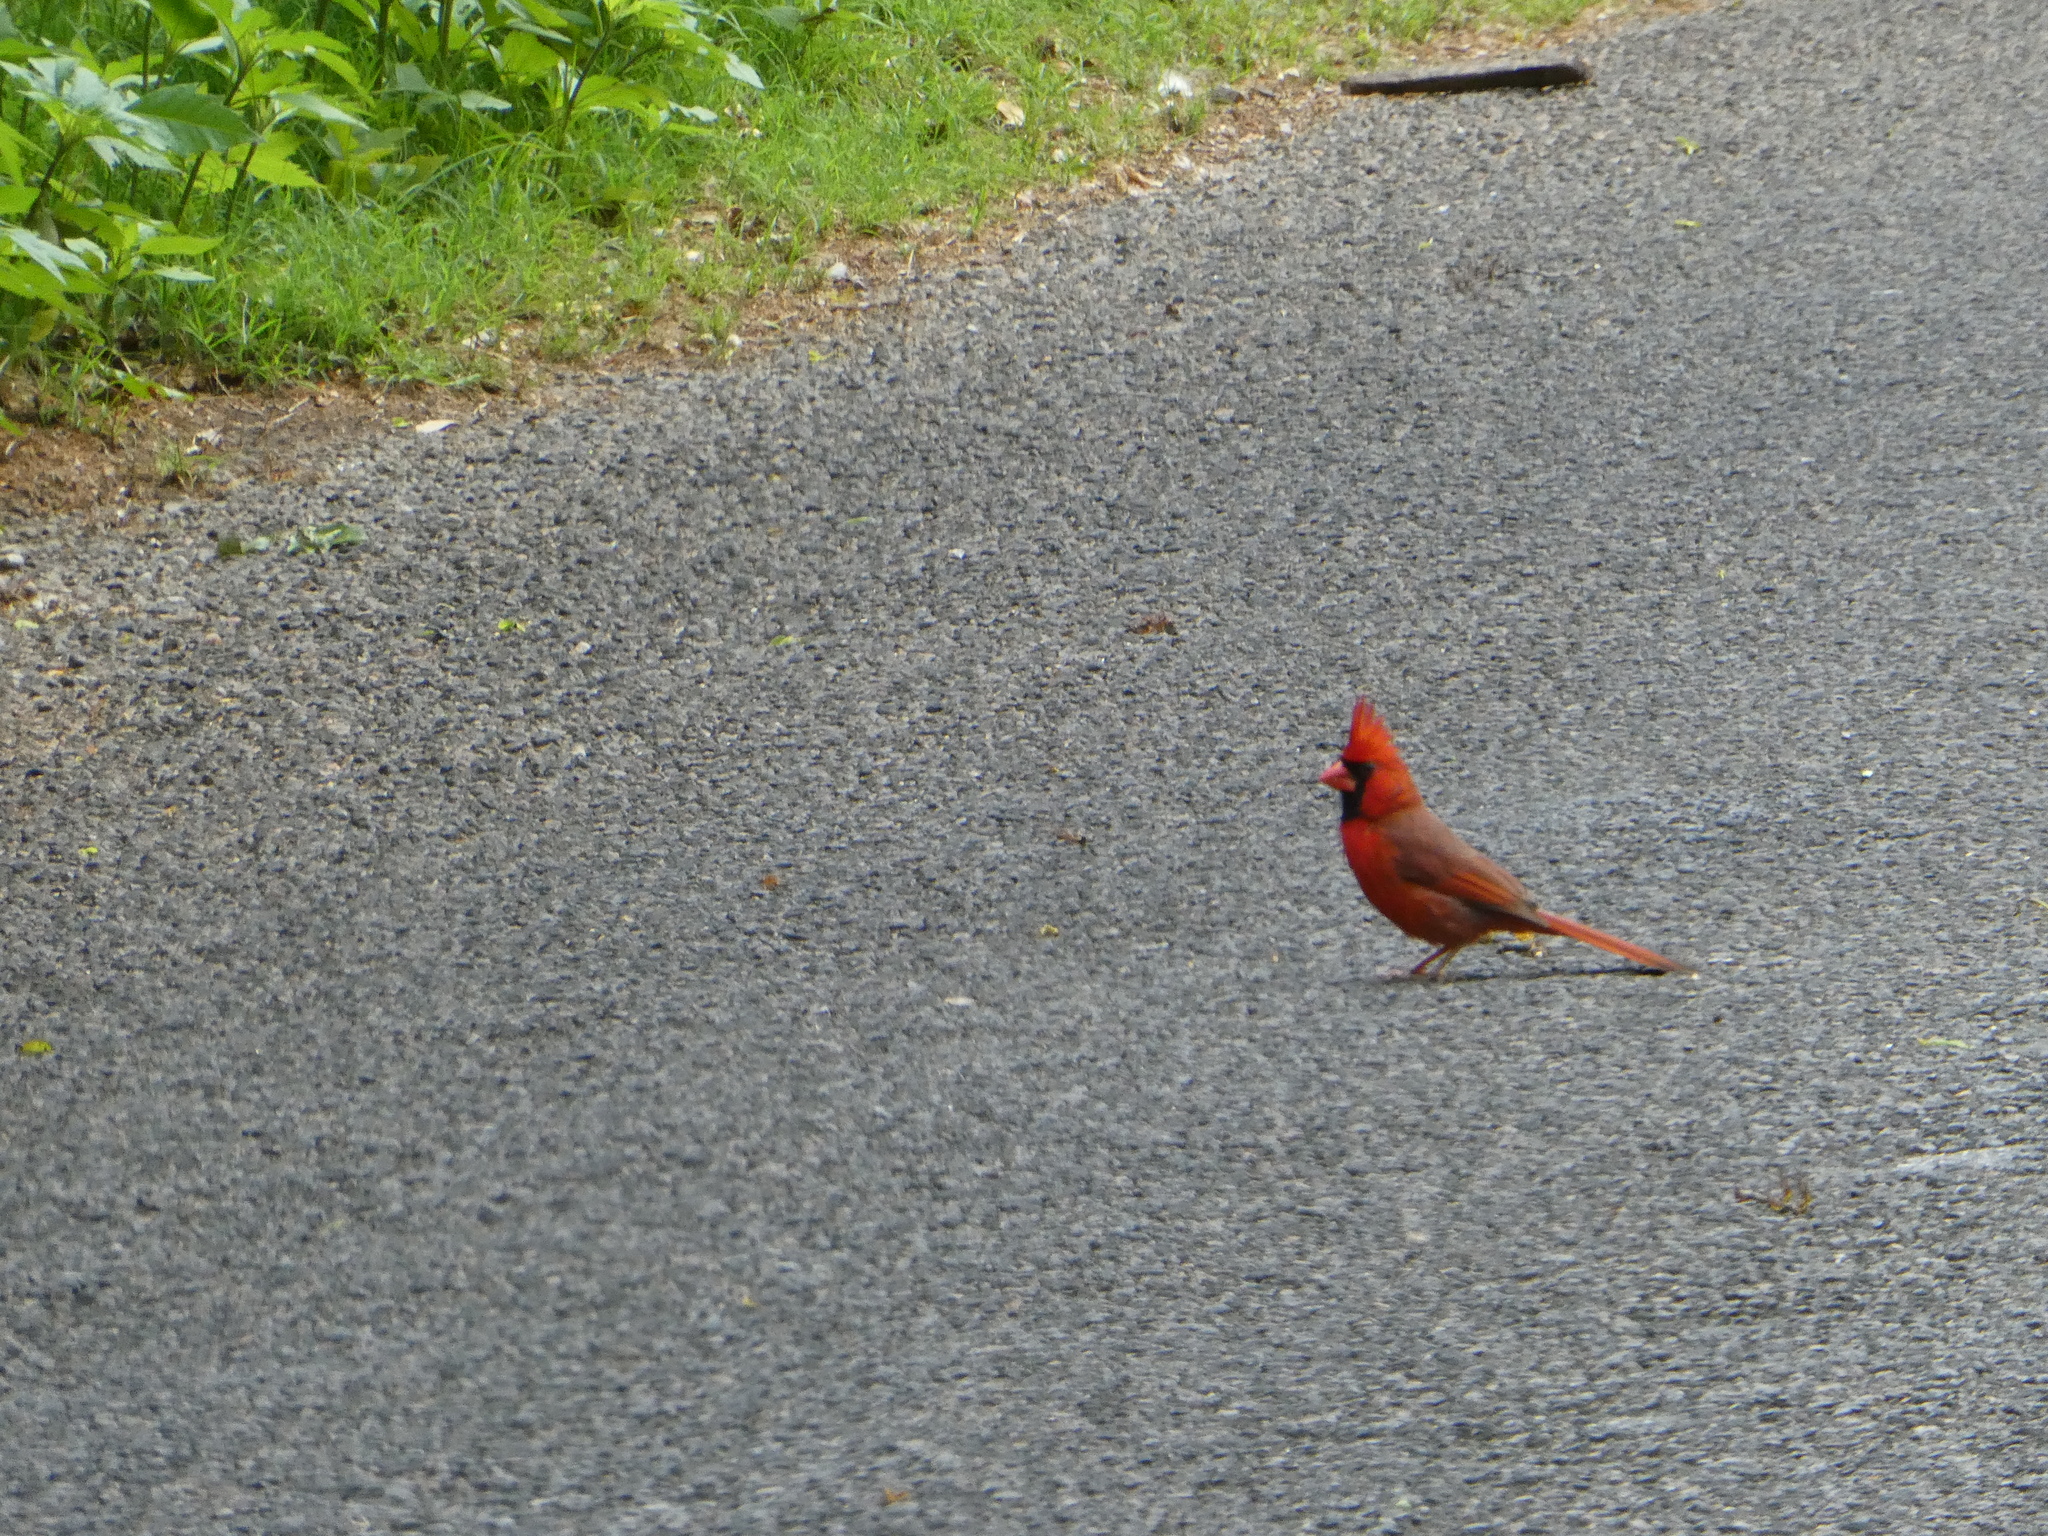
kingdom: Animalia
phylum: Chordata
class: Aves
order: Passeriformes
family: Cardinalidae
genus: Cardinalis
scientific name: Cardinalis cardinalis
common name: Northern cardinal
